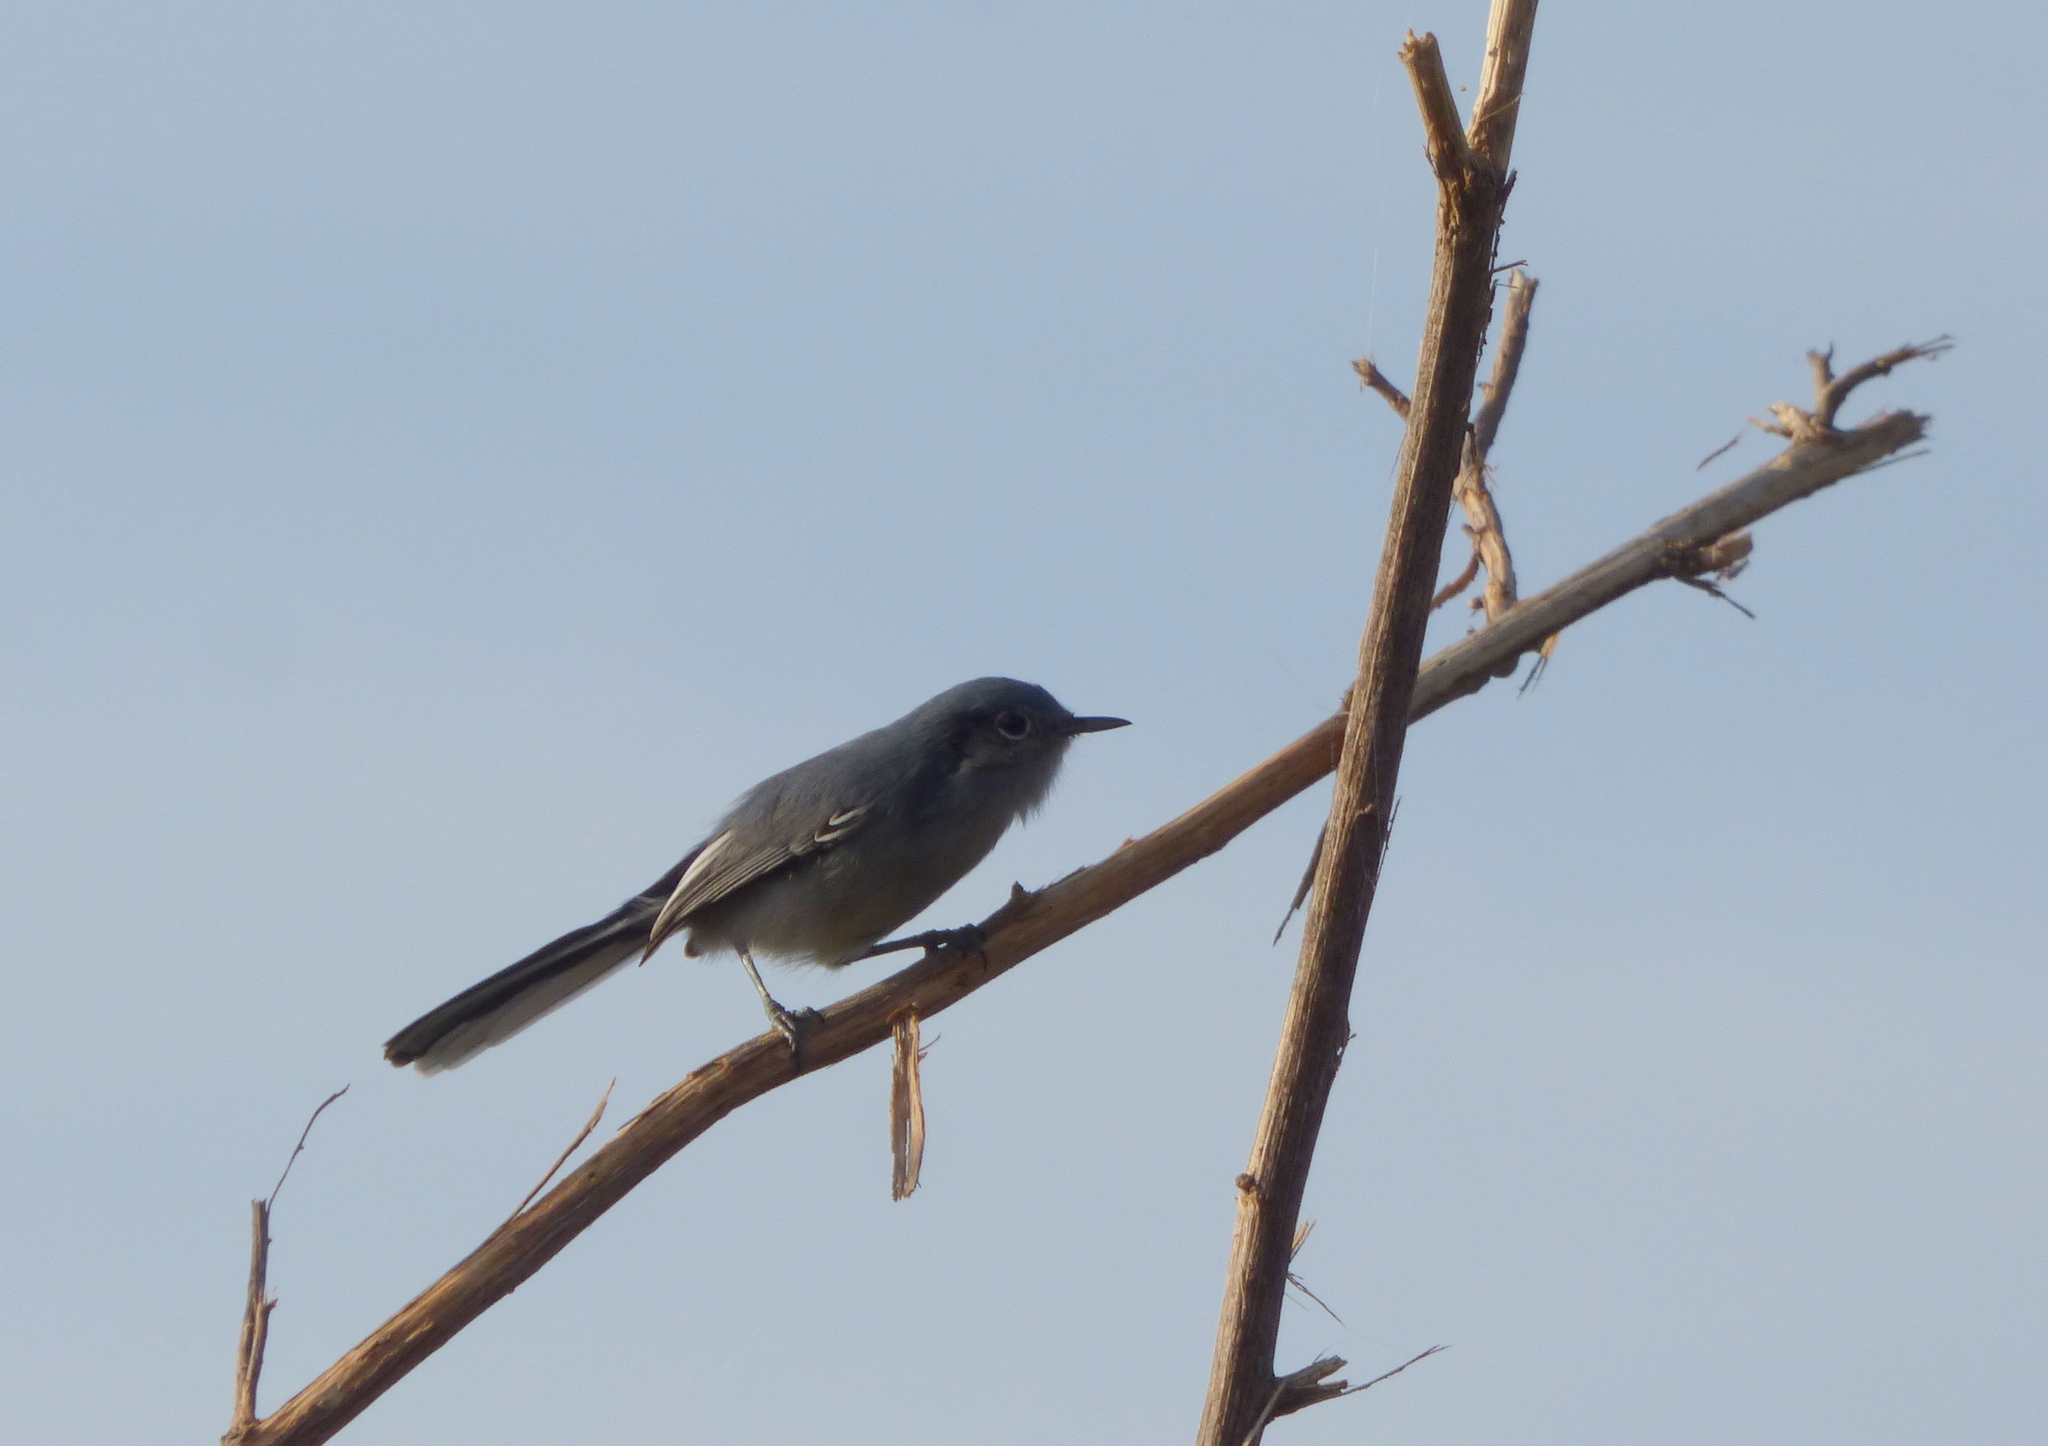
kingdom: Animalia
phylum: Chordata
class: Aves
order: Passeriformes
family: Polioptilidae
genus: Polioptila
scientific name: Polioptila dumicola
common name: Masked gnatcatcher
